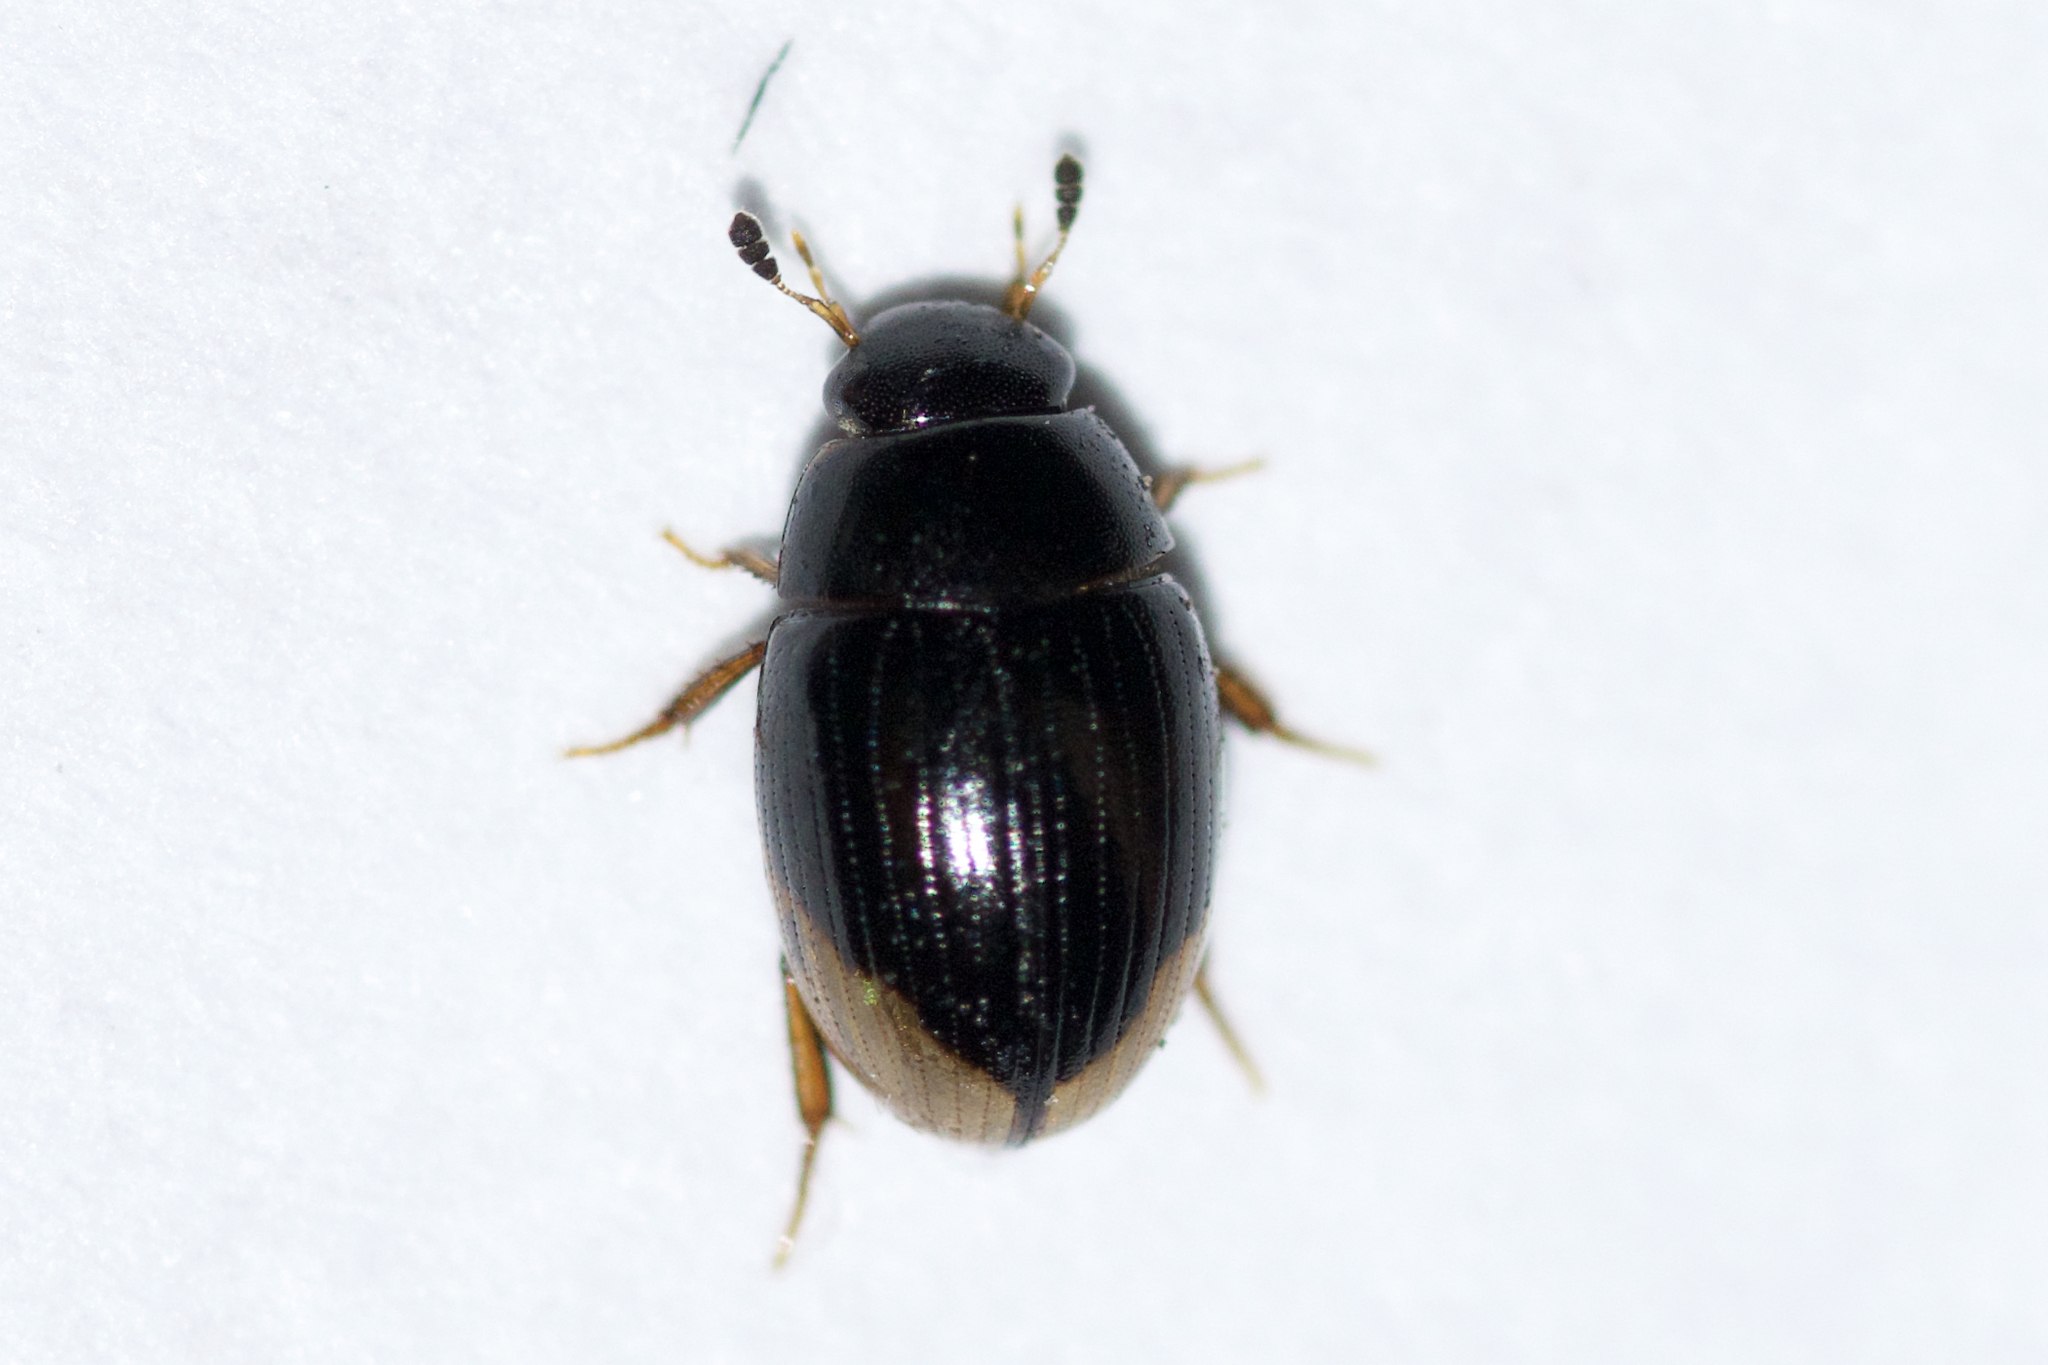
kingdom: Animalia
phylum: Arthropoda
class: Insecta
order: Coleoptera
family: Hydrophilidae
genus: Cercyon
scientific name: Cercyon praetextatus
